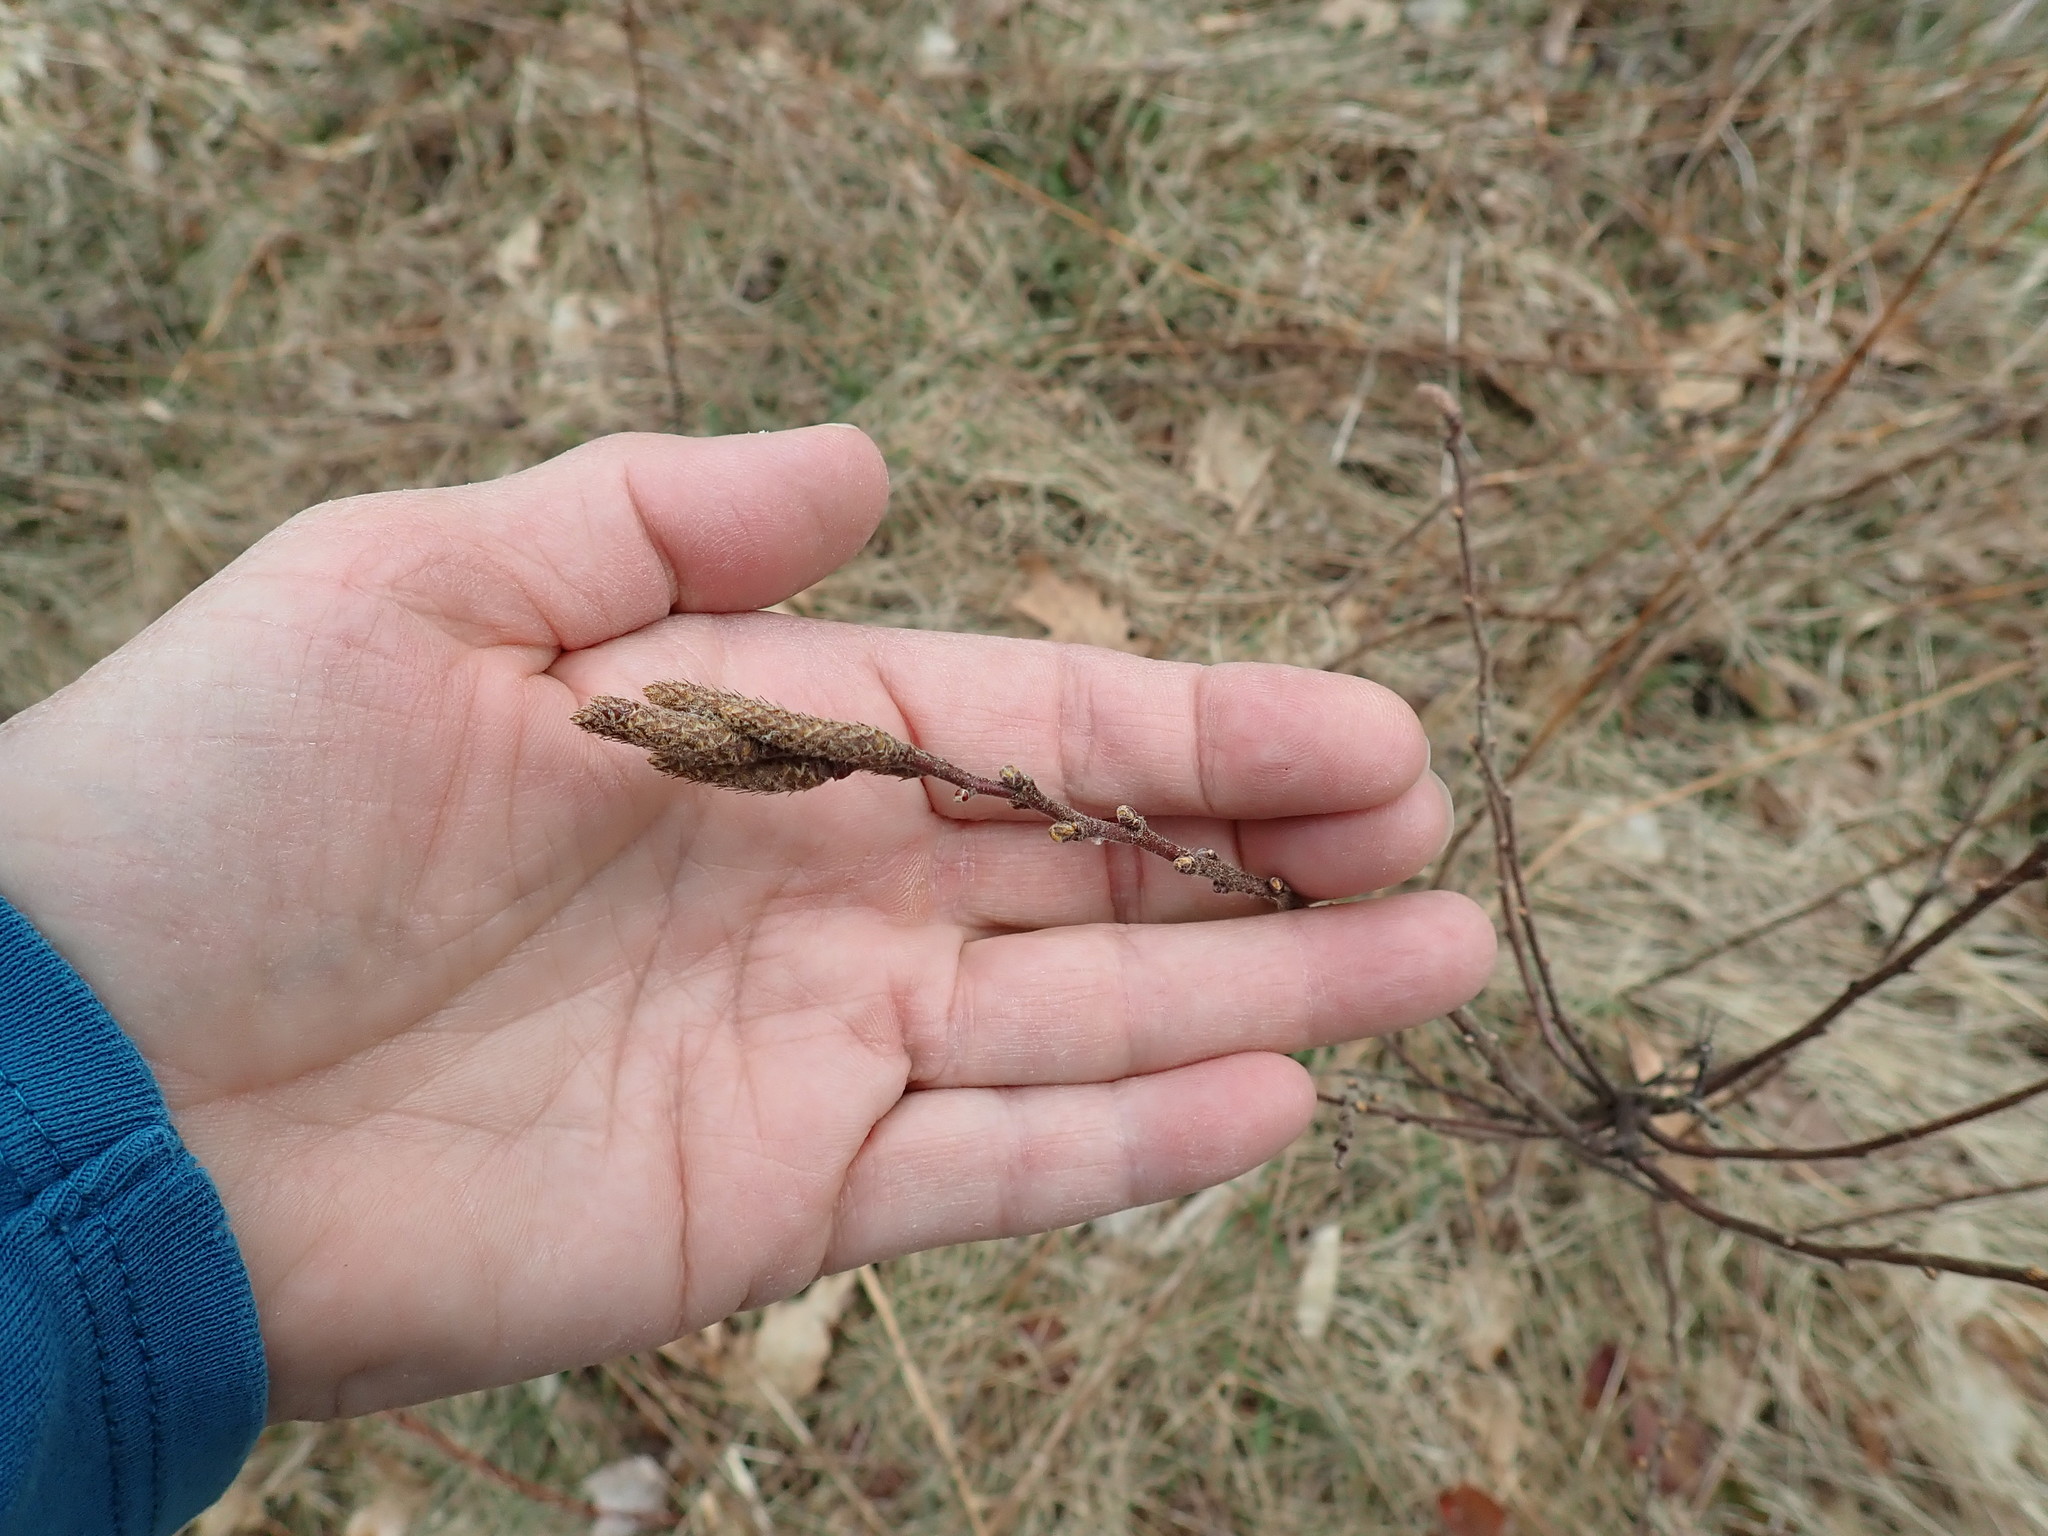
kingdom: Plantae
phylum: Tracheophyta
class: Magnoliopsida
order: Fagales
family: Myricaceae
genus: Comptonia
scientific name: Comptonia peregrina
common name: Sweet-fern
